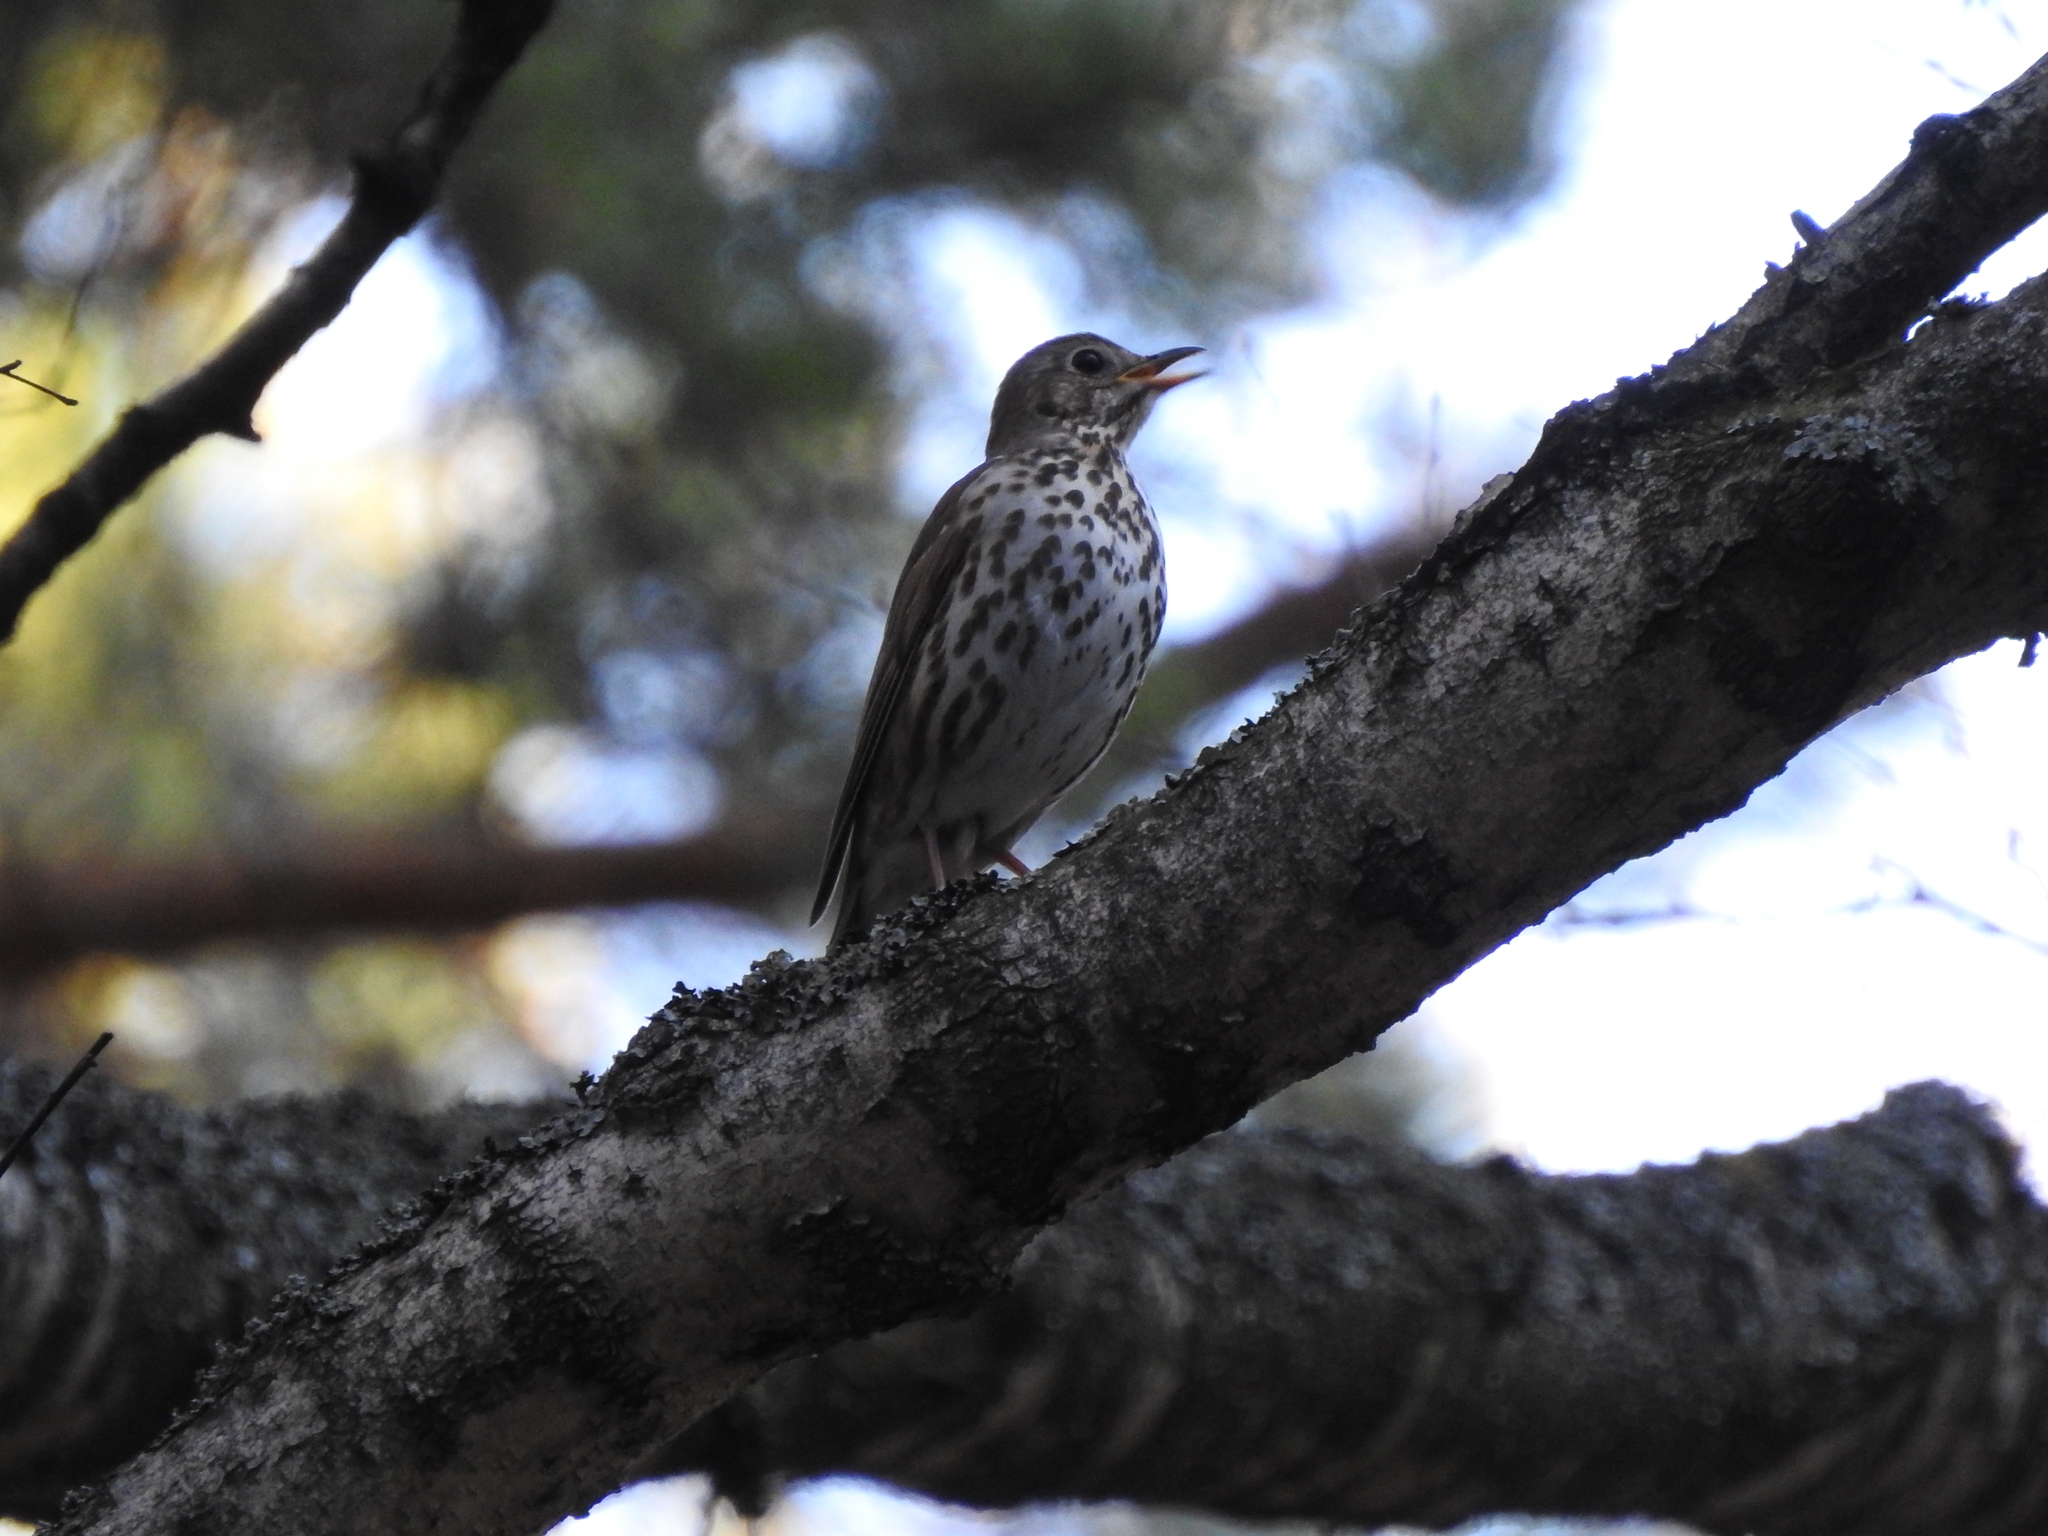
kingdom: Animalia
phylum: Chordata
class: Aves
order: Passeriformes
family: Turdidae
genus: Turdus
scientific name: Turdus philomelos
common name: Song thrush
